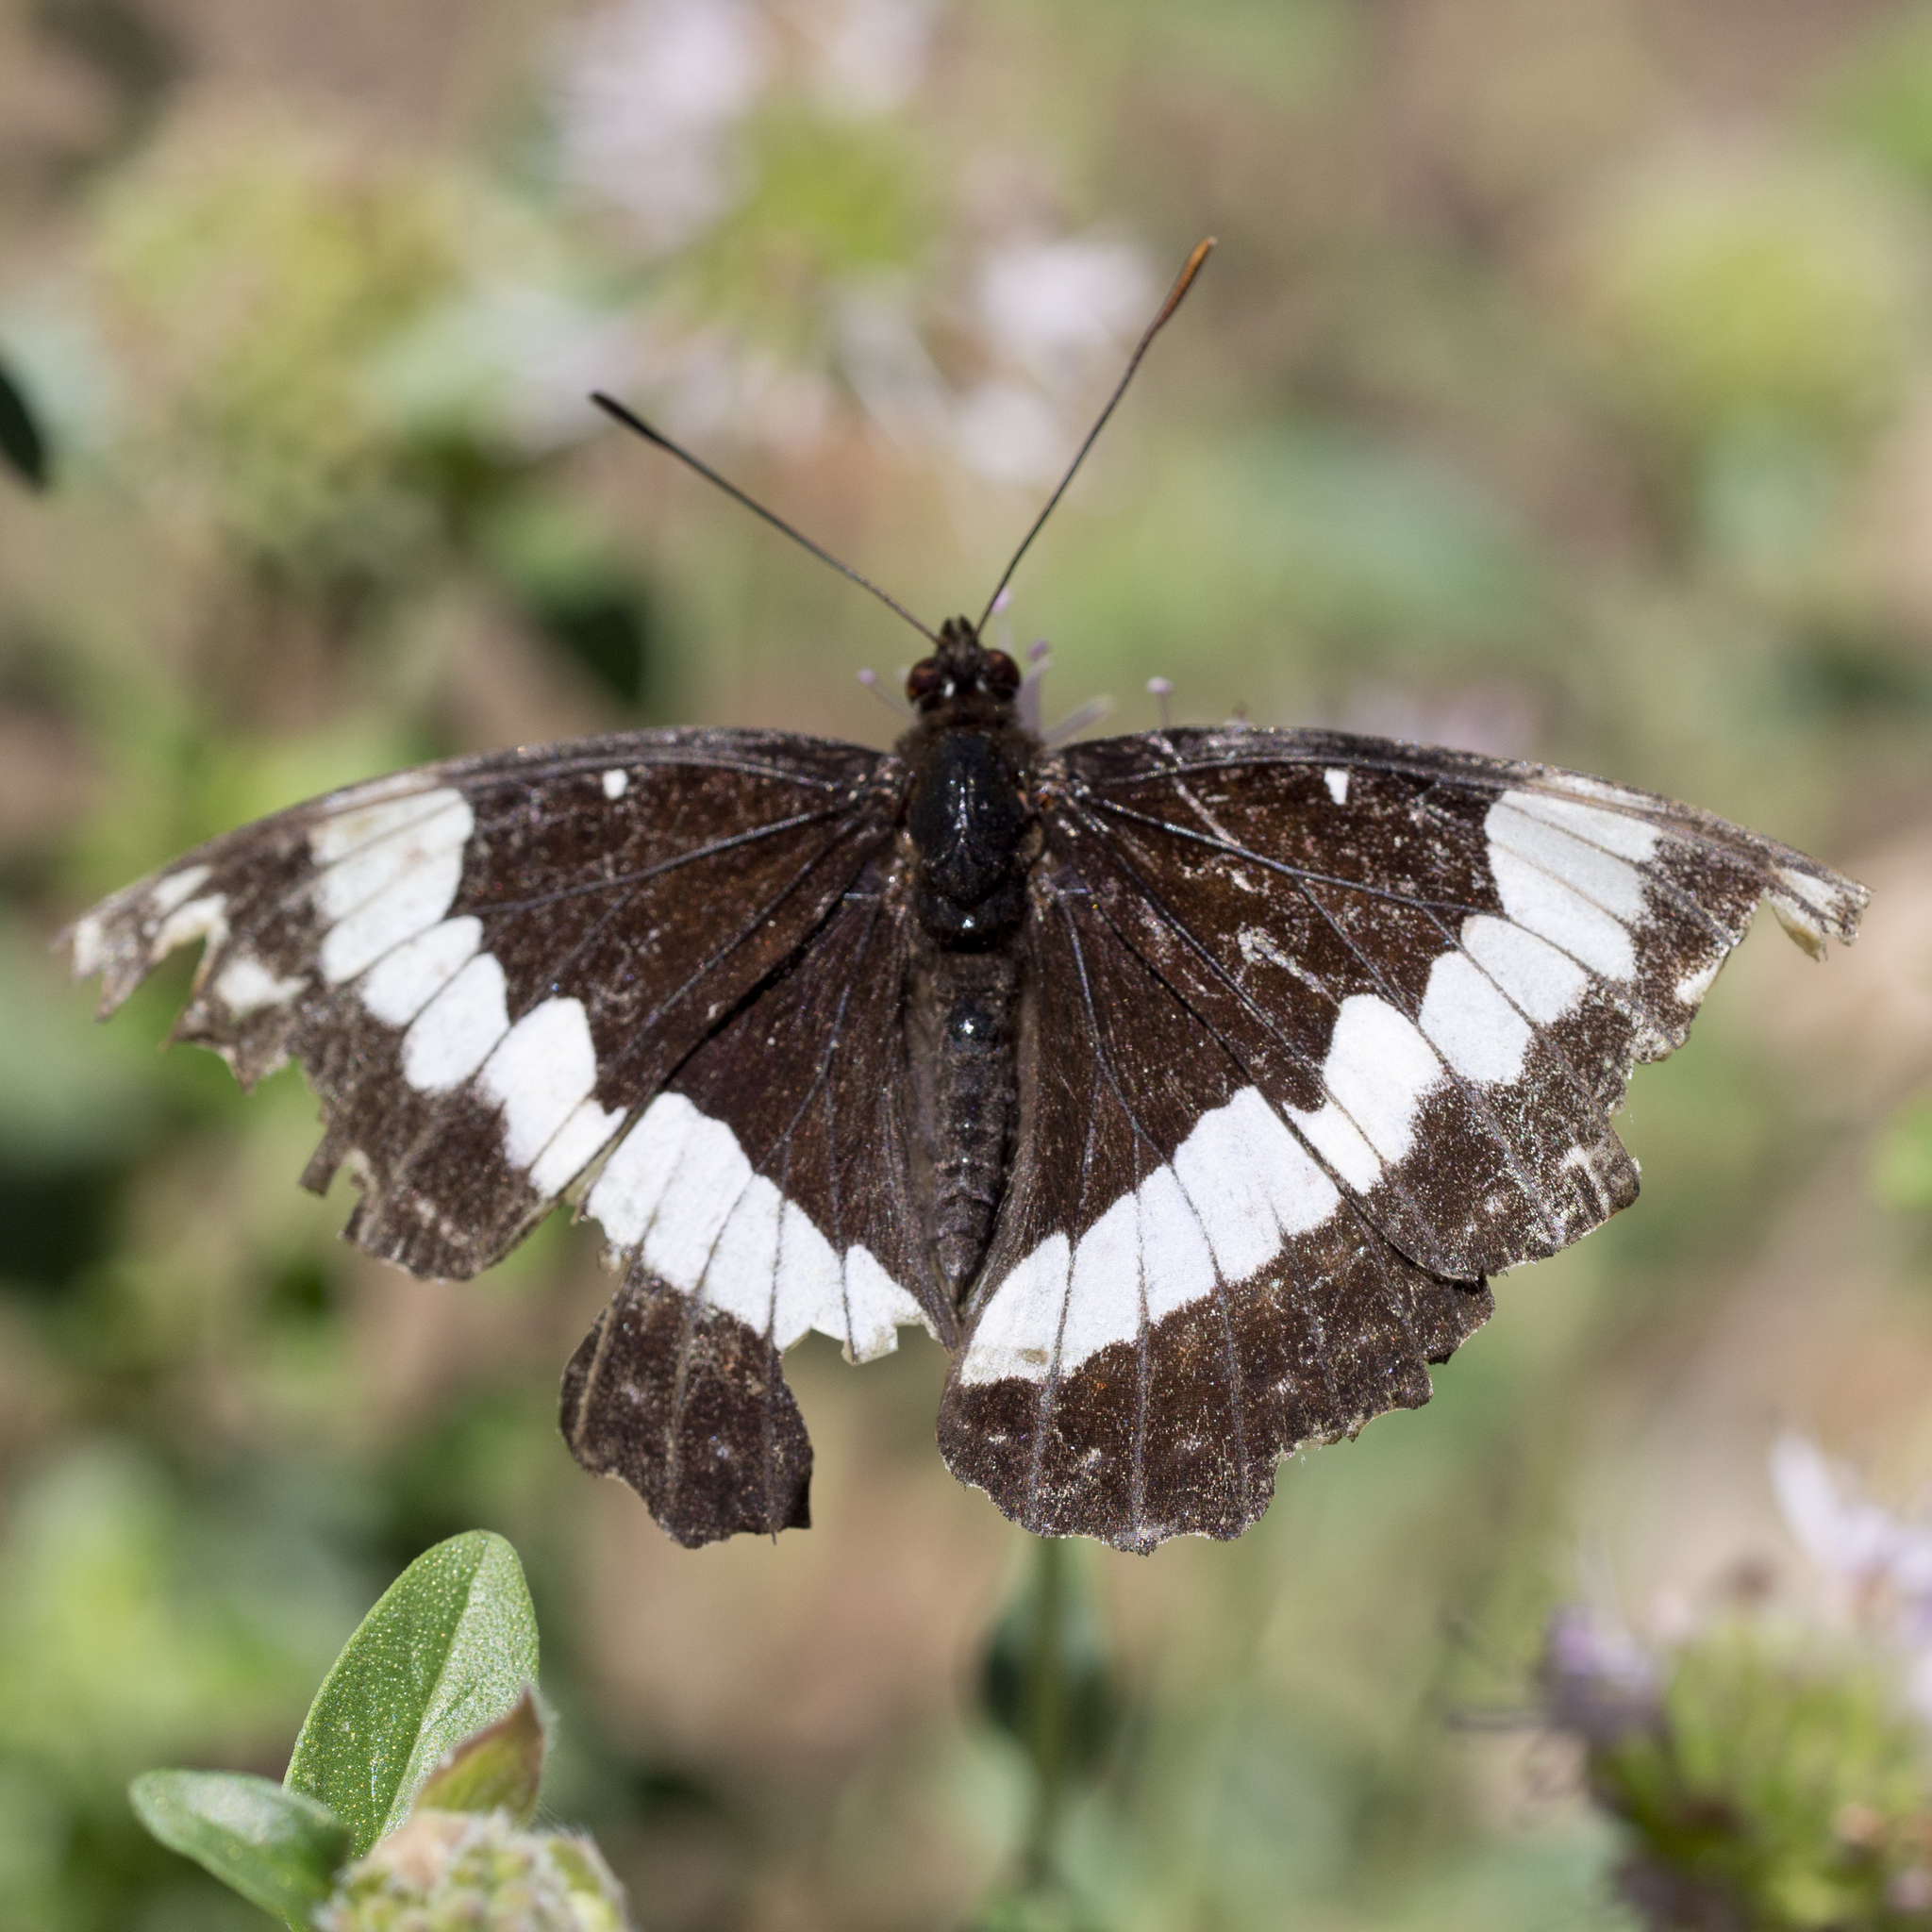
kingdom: Animalia
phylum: Arthropoda
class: Insecta
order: Lepidoptera
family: Nymphalidae
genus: Limenitis
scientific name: Limenitis weidemeyerii
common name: Weidemeyer's admiral
